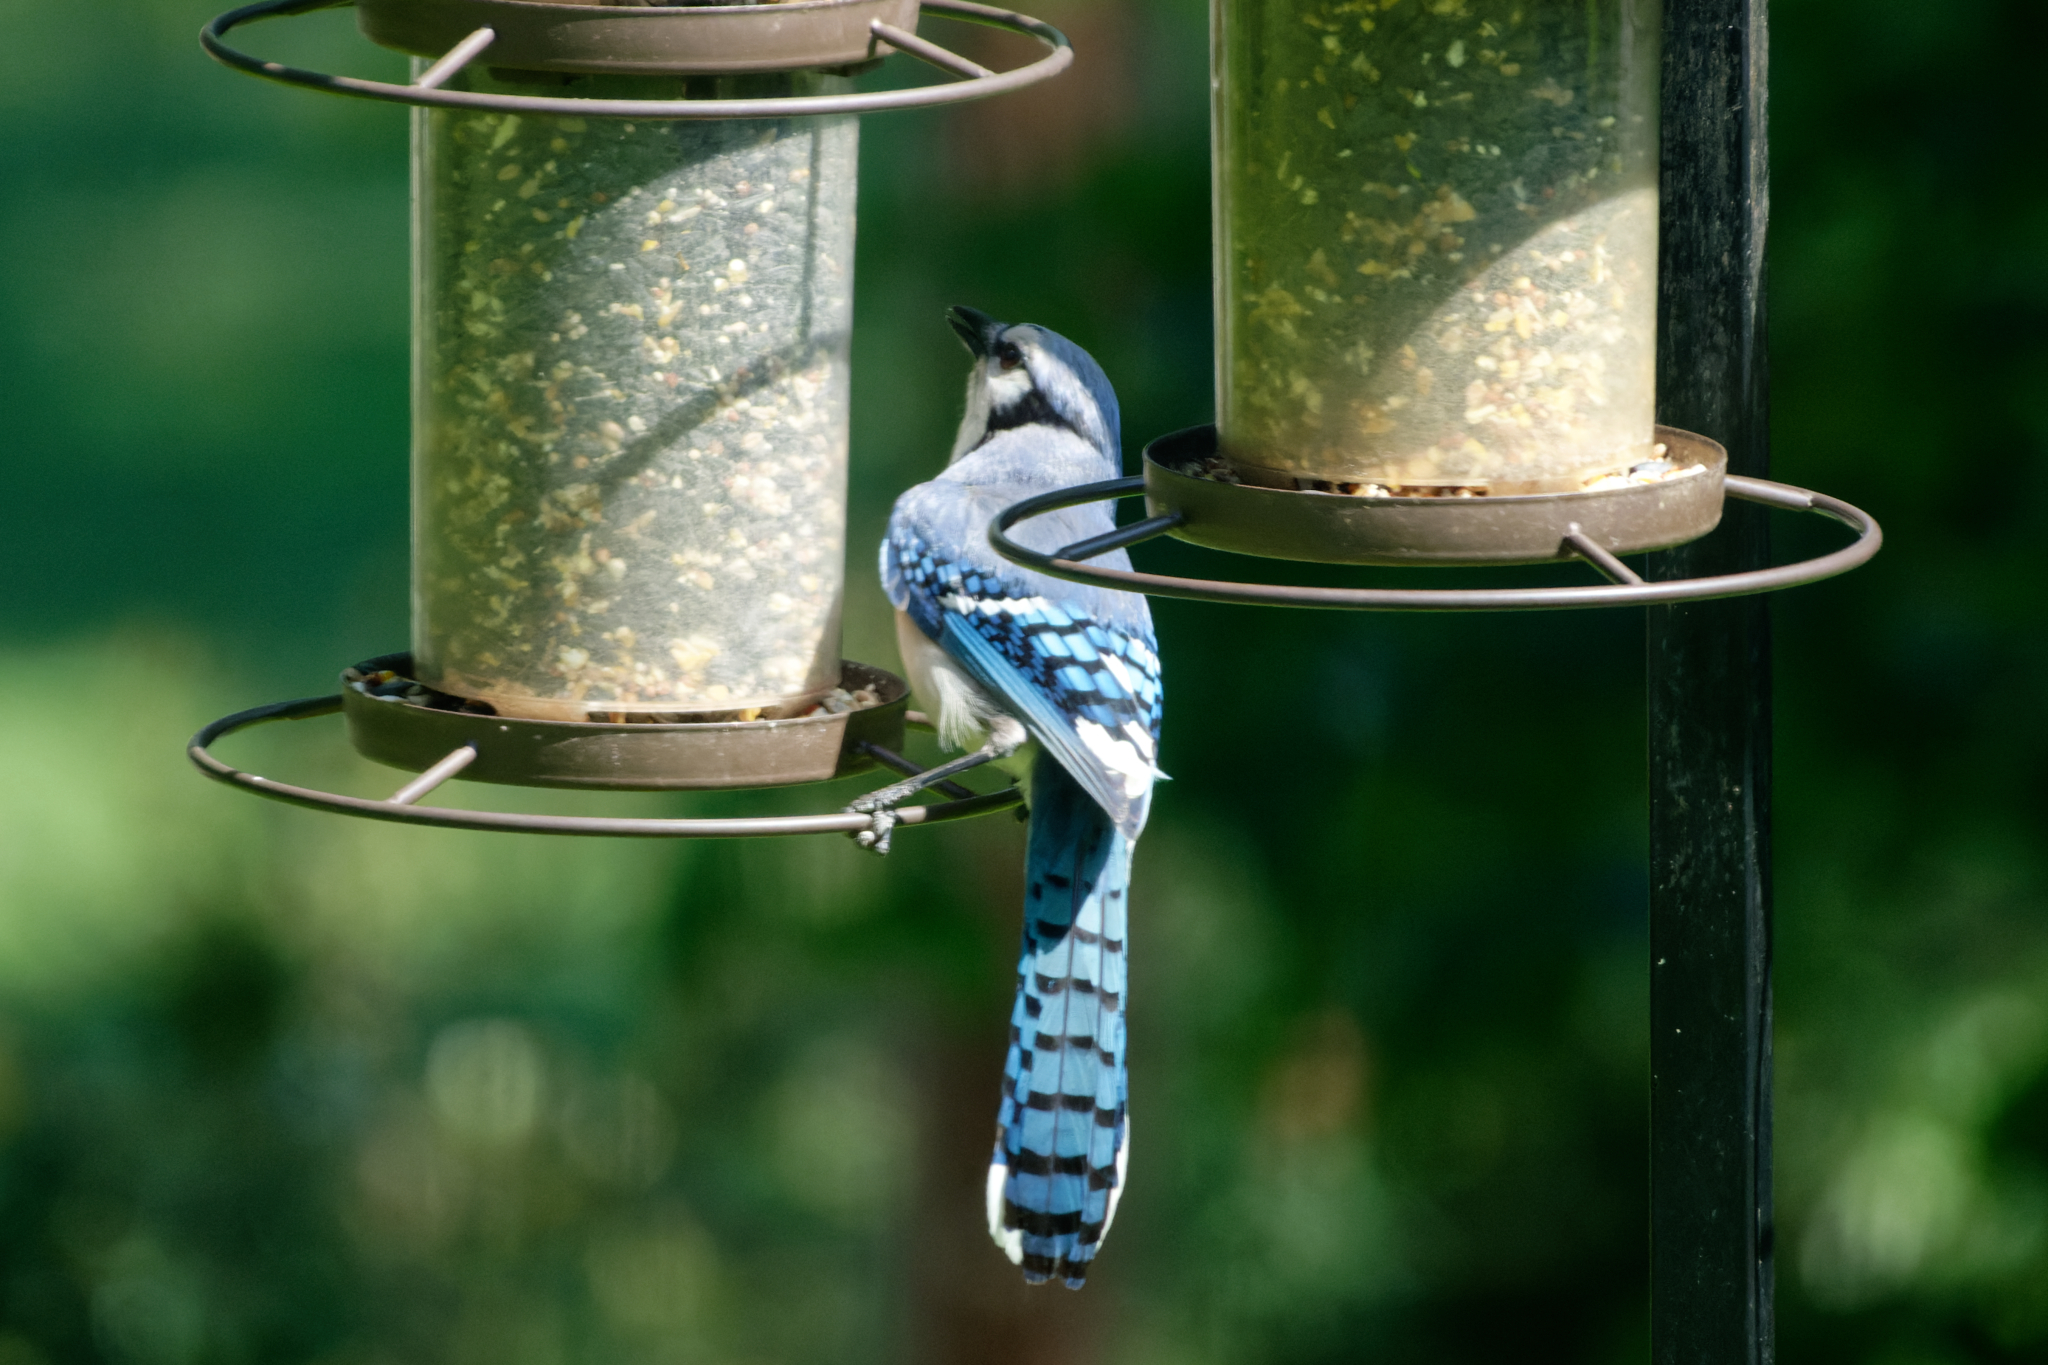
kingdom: Animalia
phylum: Chordata
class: Aves
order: Passeriformes
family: Corvidae
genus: Cyanocitta
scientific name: Cyanocitta cristata
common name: Blue jay
